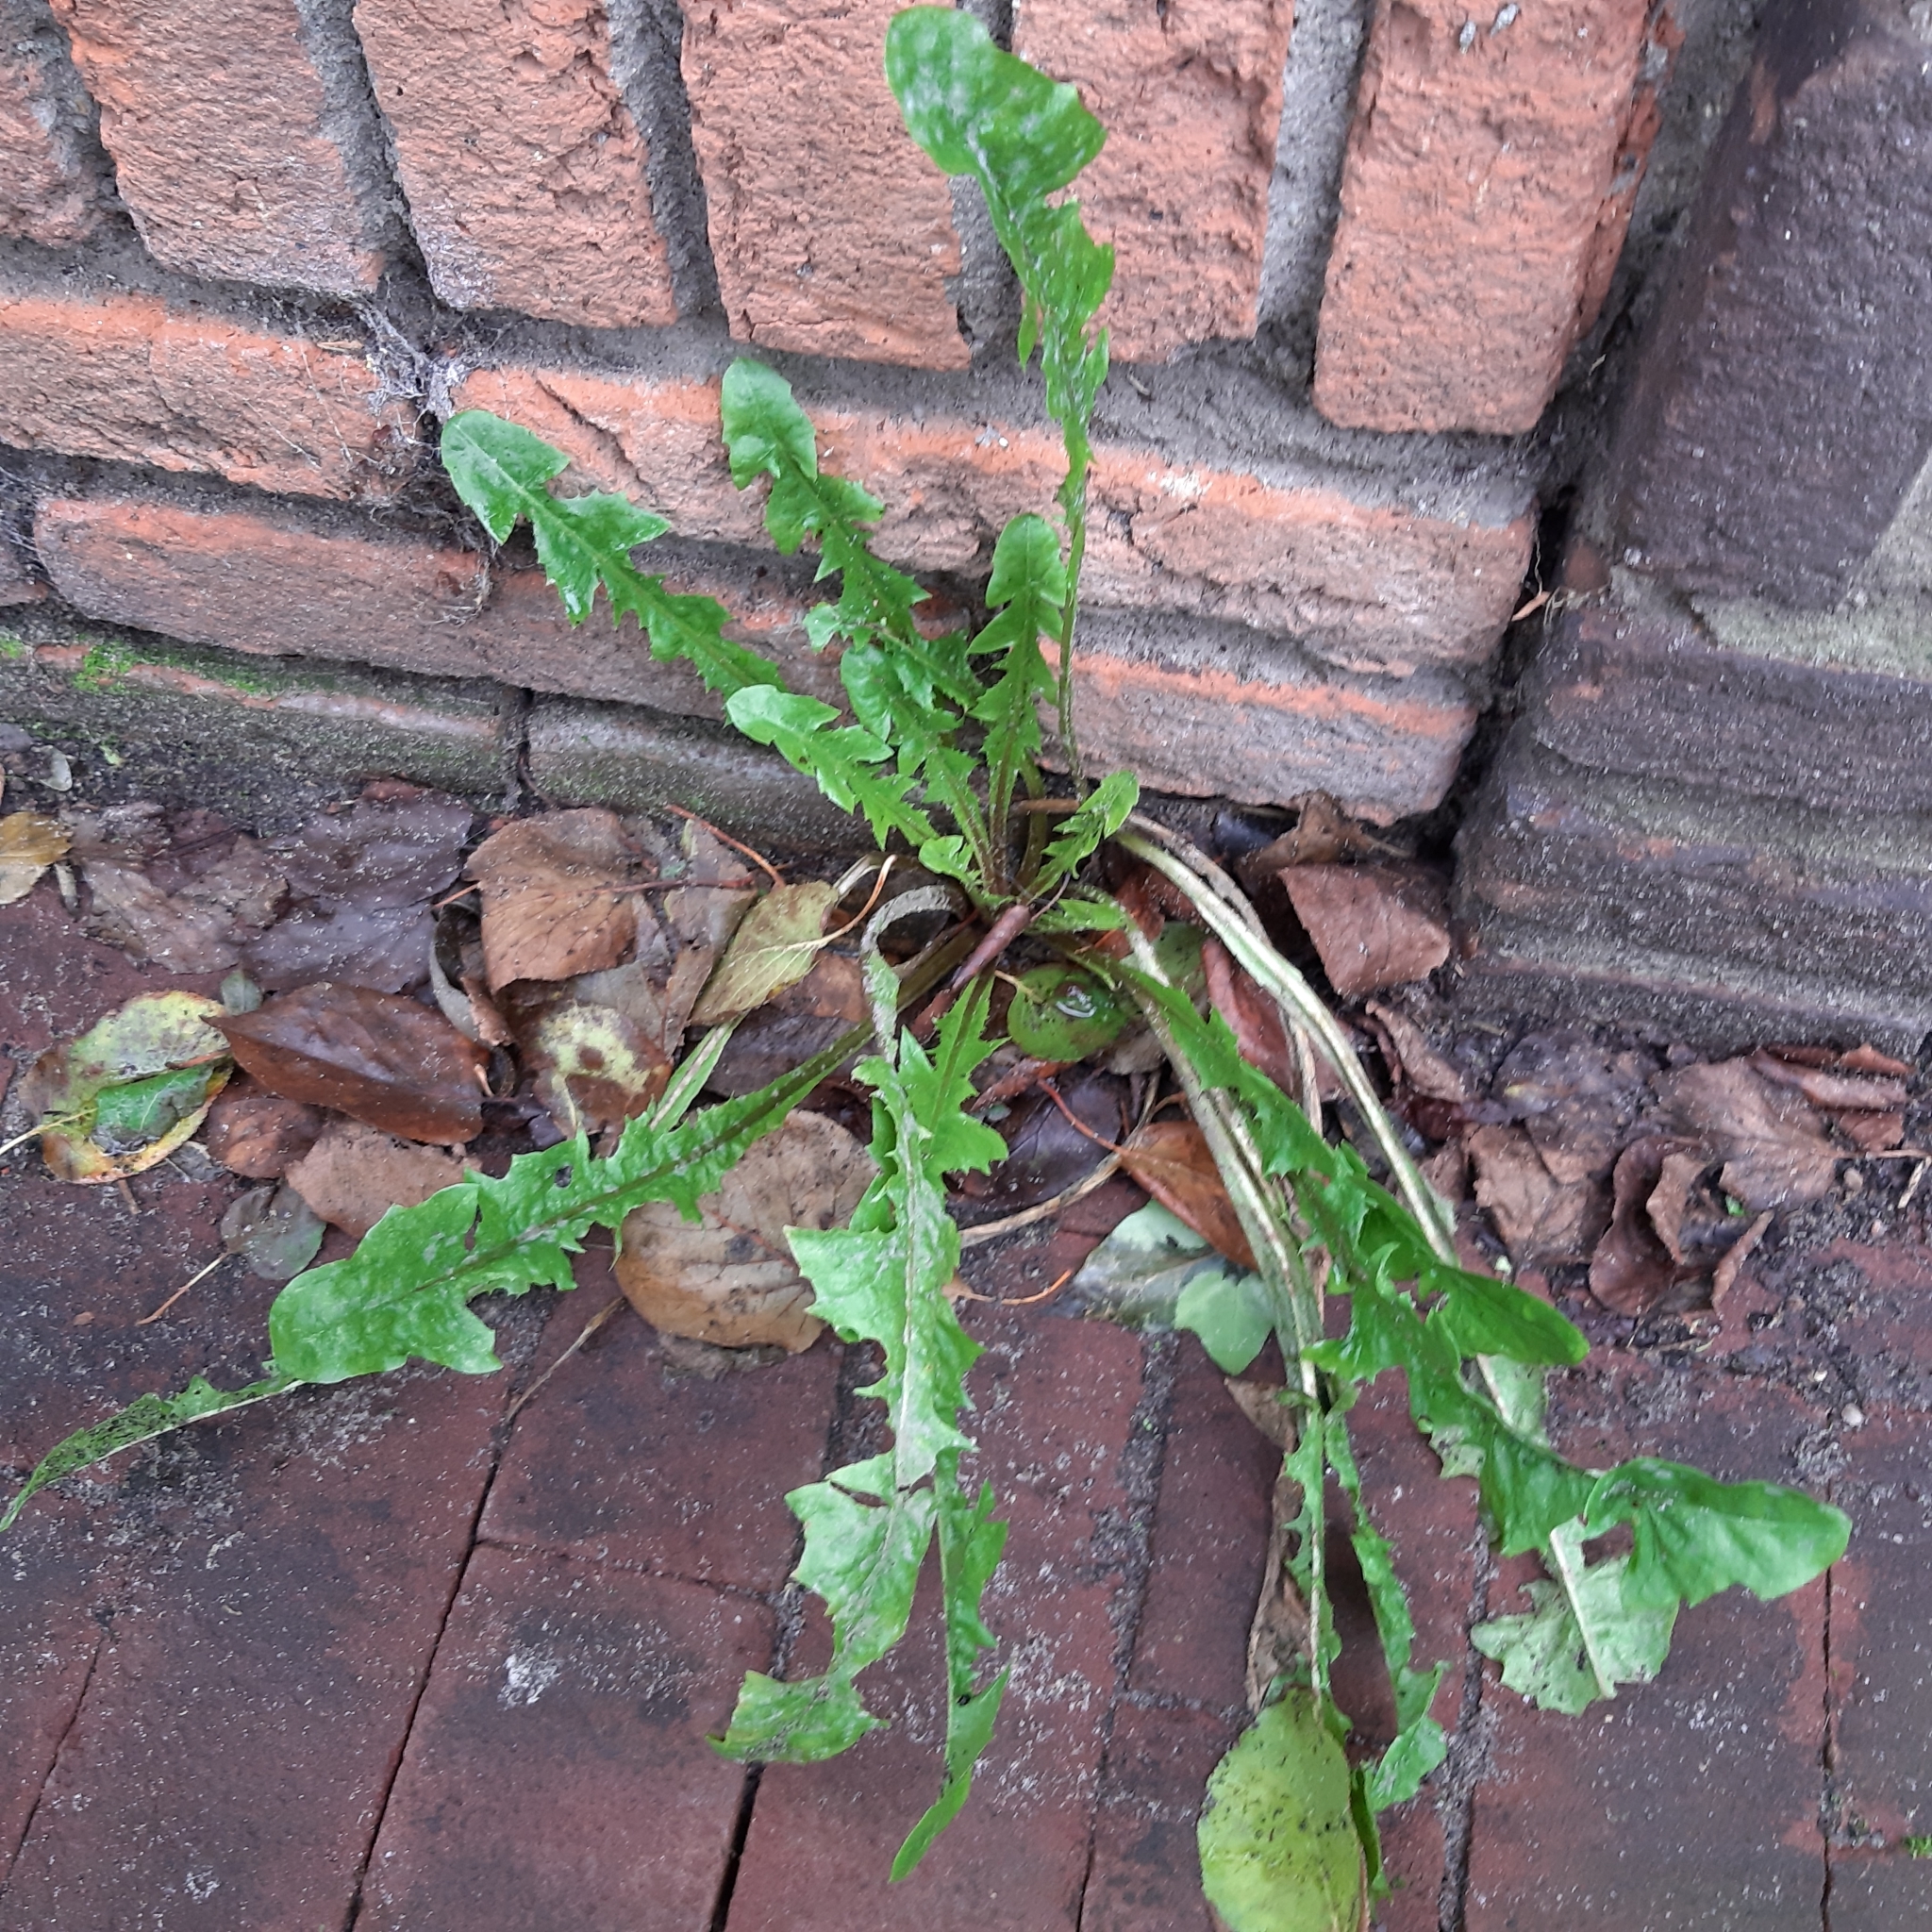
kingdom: Plantae
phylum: Tracheophyta
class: Magnoliopsida
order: Asterales
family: Asteraceae
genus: Taraxacum
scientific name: Taraxacum officinale
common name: Common dandelion
